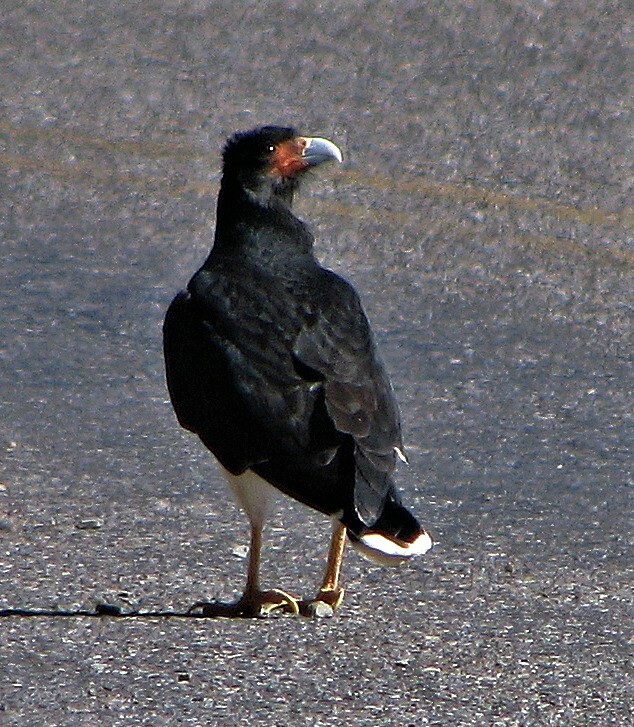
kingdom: Animalia
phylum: Chordata
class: Aves
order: Falconiformes
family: Falconidae
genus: Daptrius
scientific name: Daptrius
